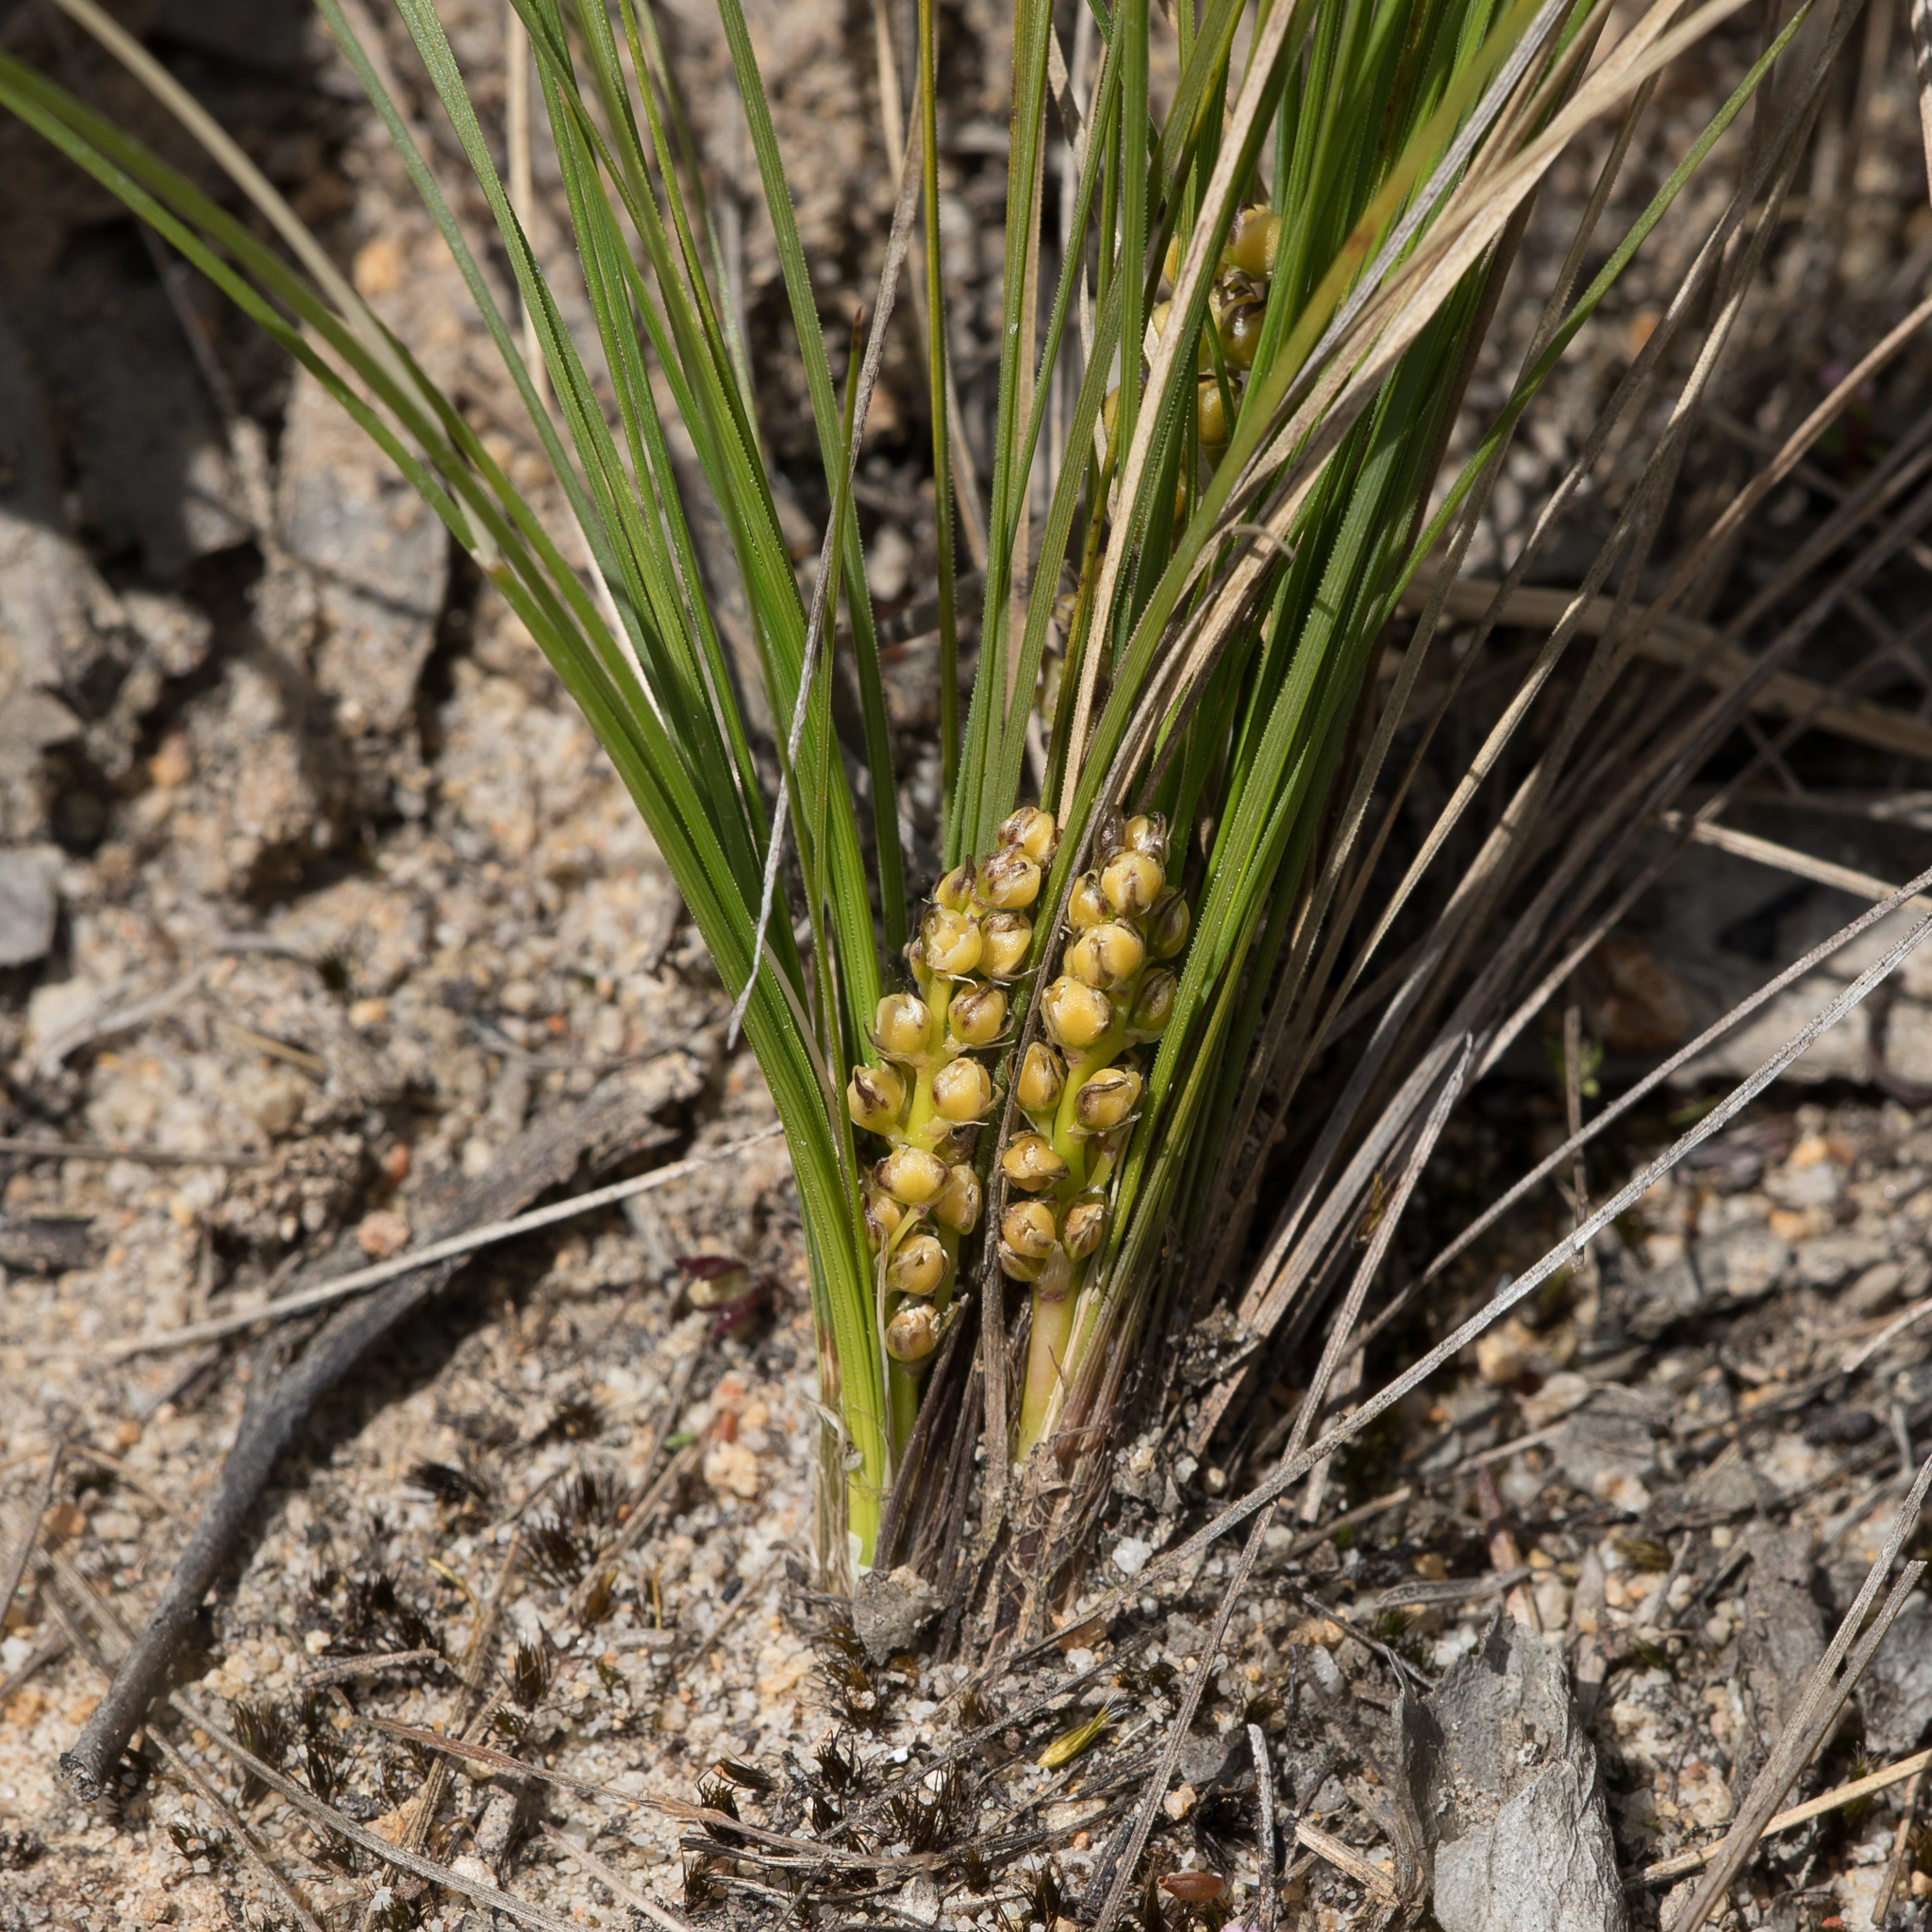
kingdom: Plantae
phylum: Tracheophyta
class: Liliopsida
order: Asparagales
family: Asparagaceae
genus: Lomandra
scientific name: Lomandra fibrata
